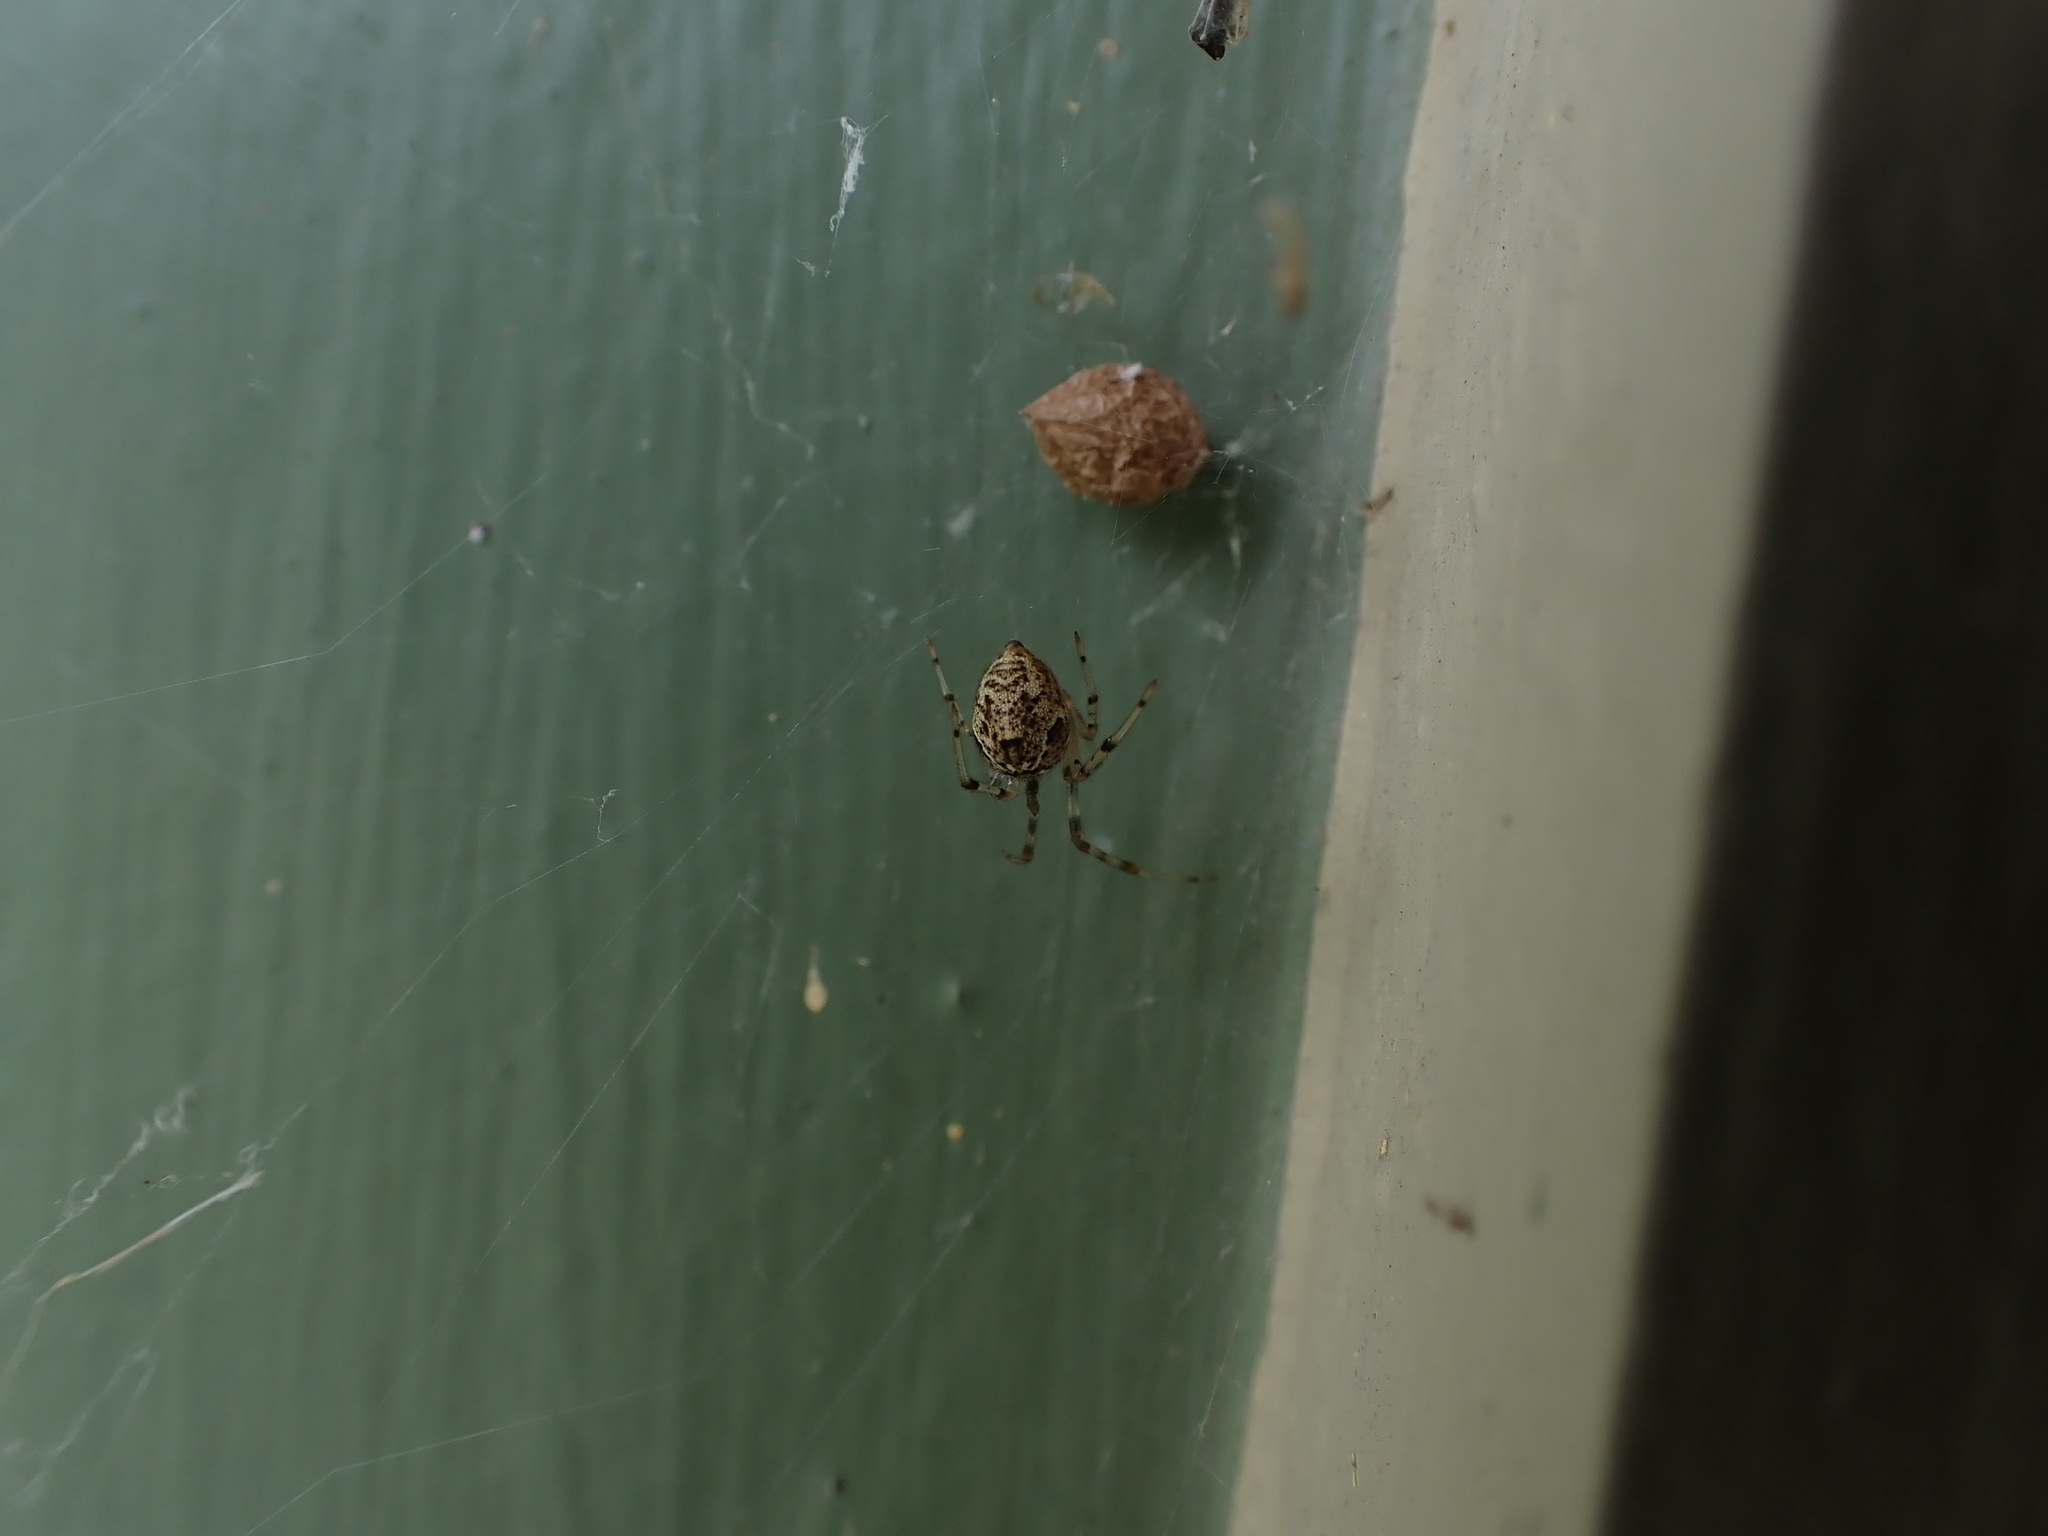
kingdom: Animalia
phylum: Arthropoda
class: Arachnida
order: Araneae
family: Theridiidae
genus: Parasteatoda
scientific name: Parasteatoda tepidariorum
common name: Common house spider
